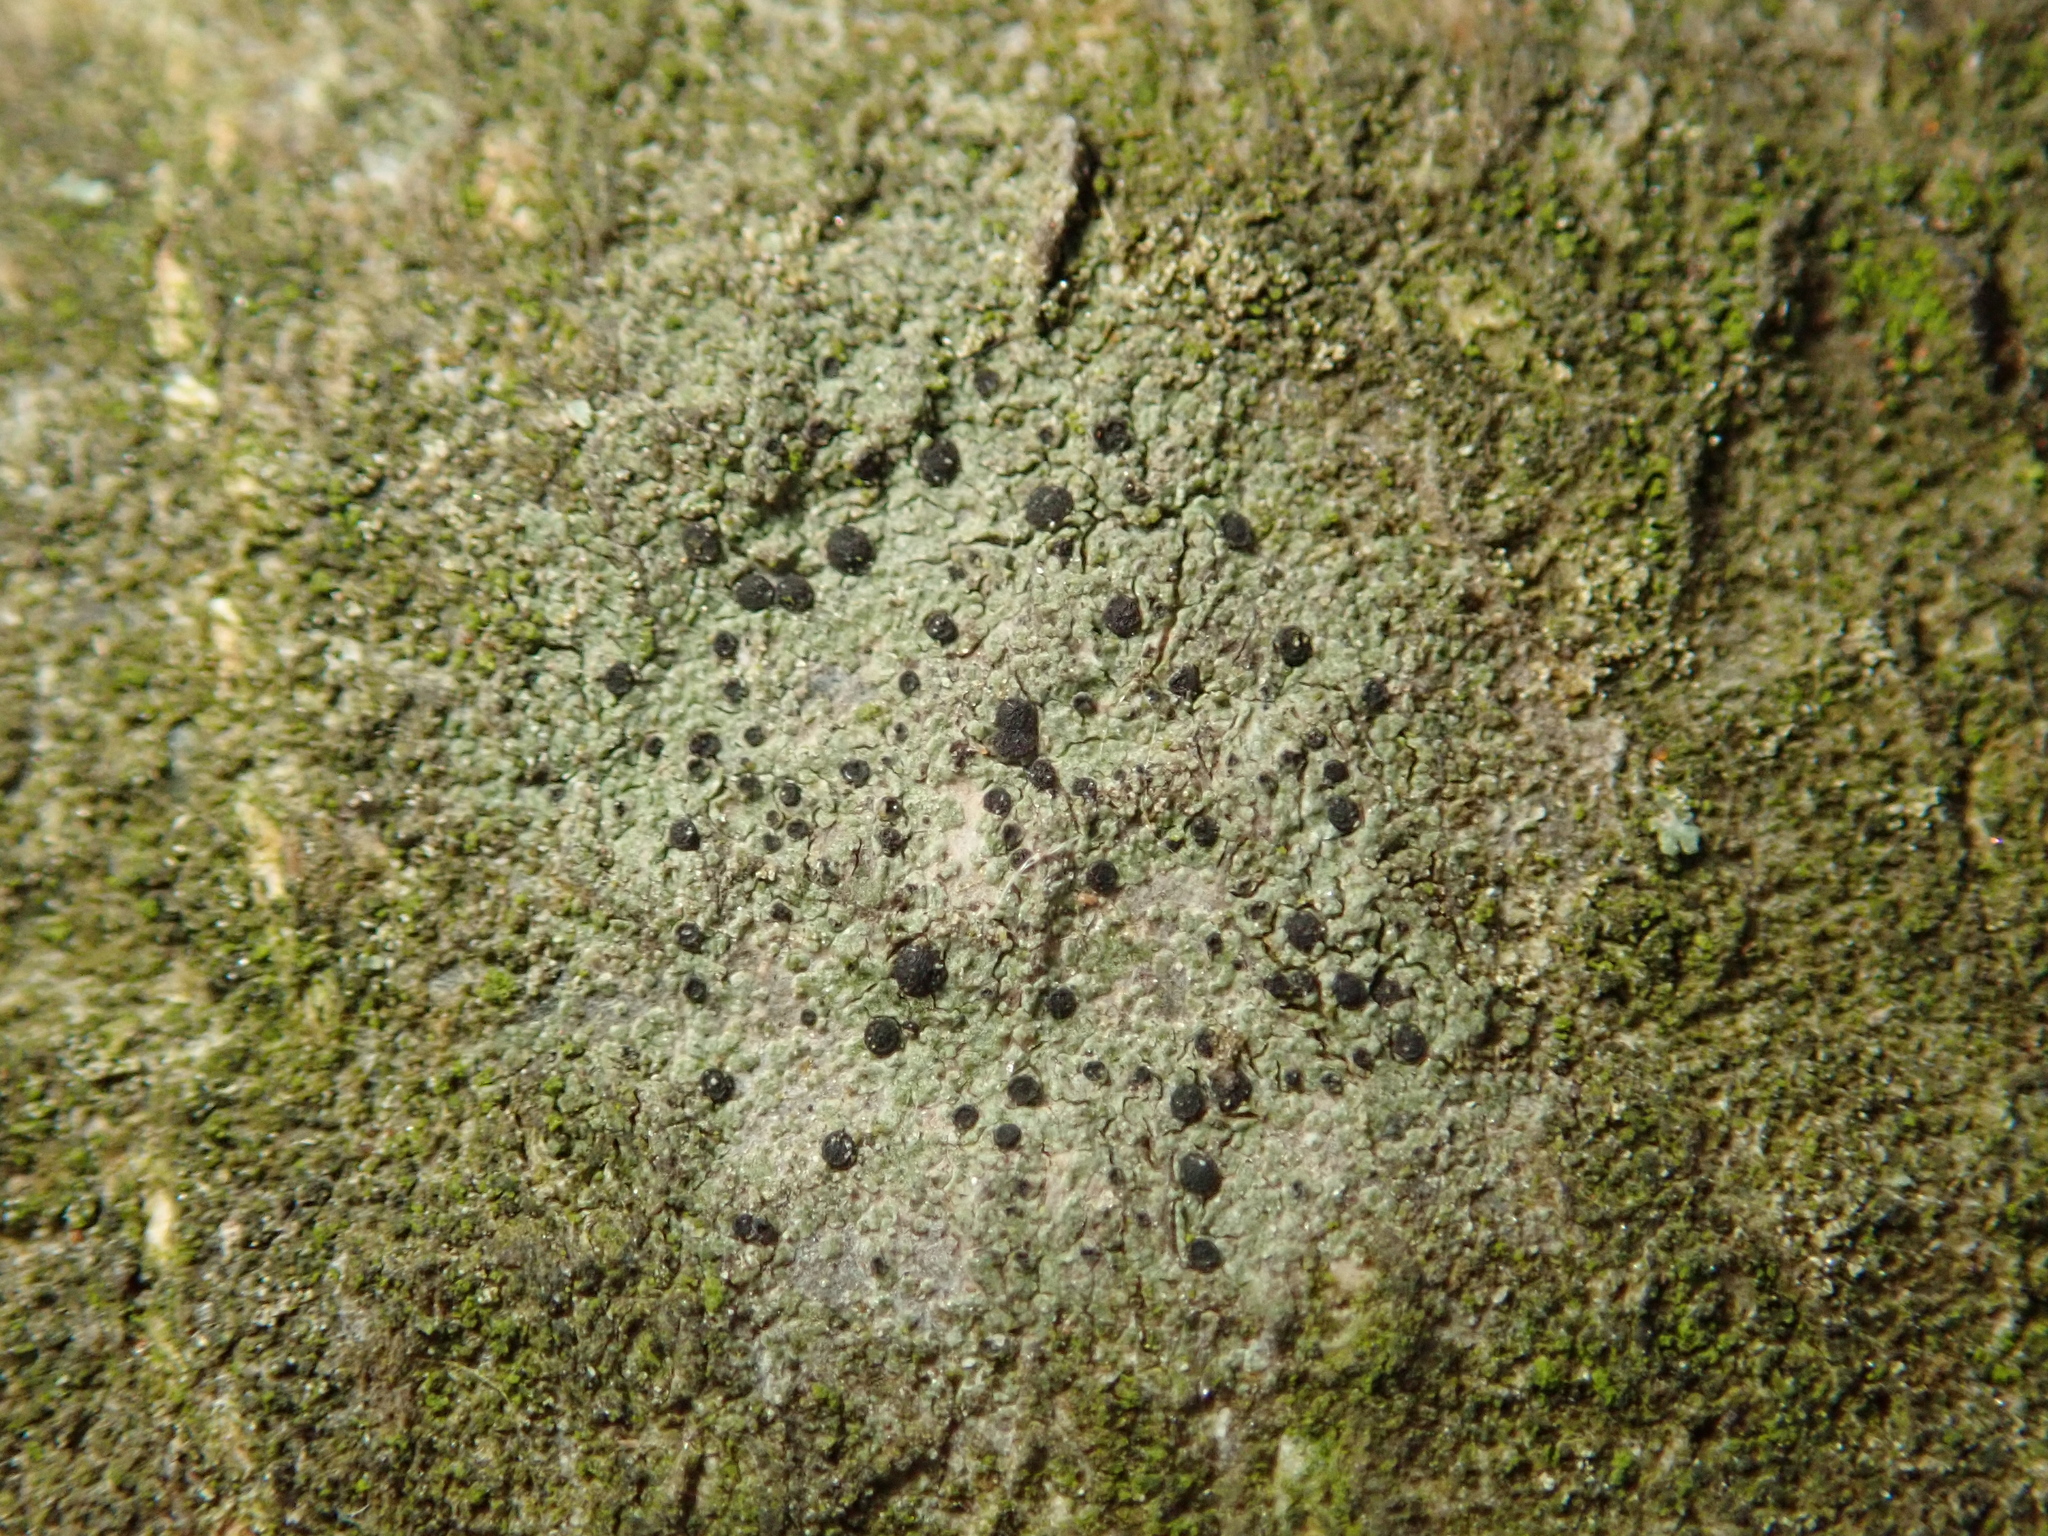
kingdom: Fungi
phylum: Ascomycota
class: Lecanoromycetes
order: Lecanorales
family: Lecanoraceae
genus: Lecidella
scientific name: Lecidella elaeochroma
